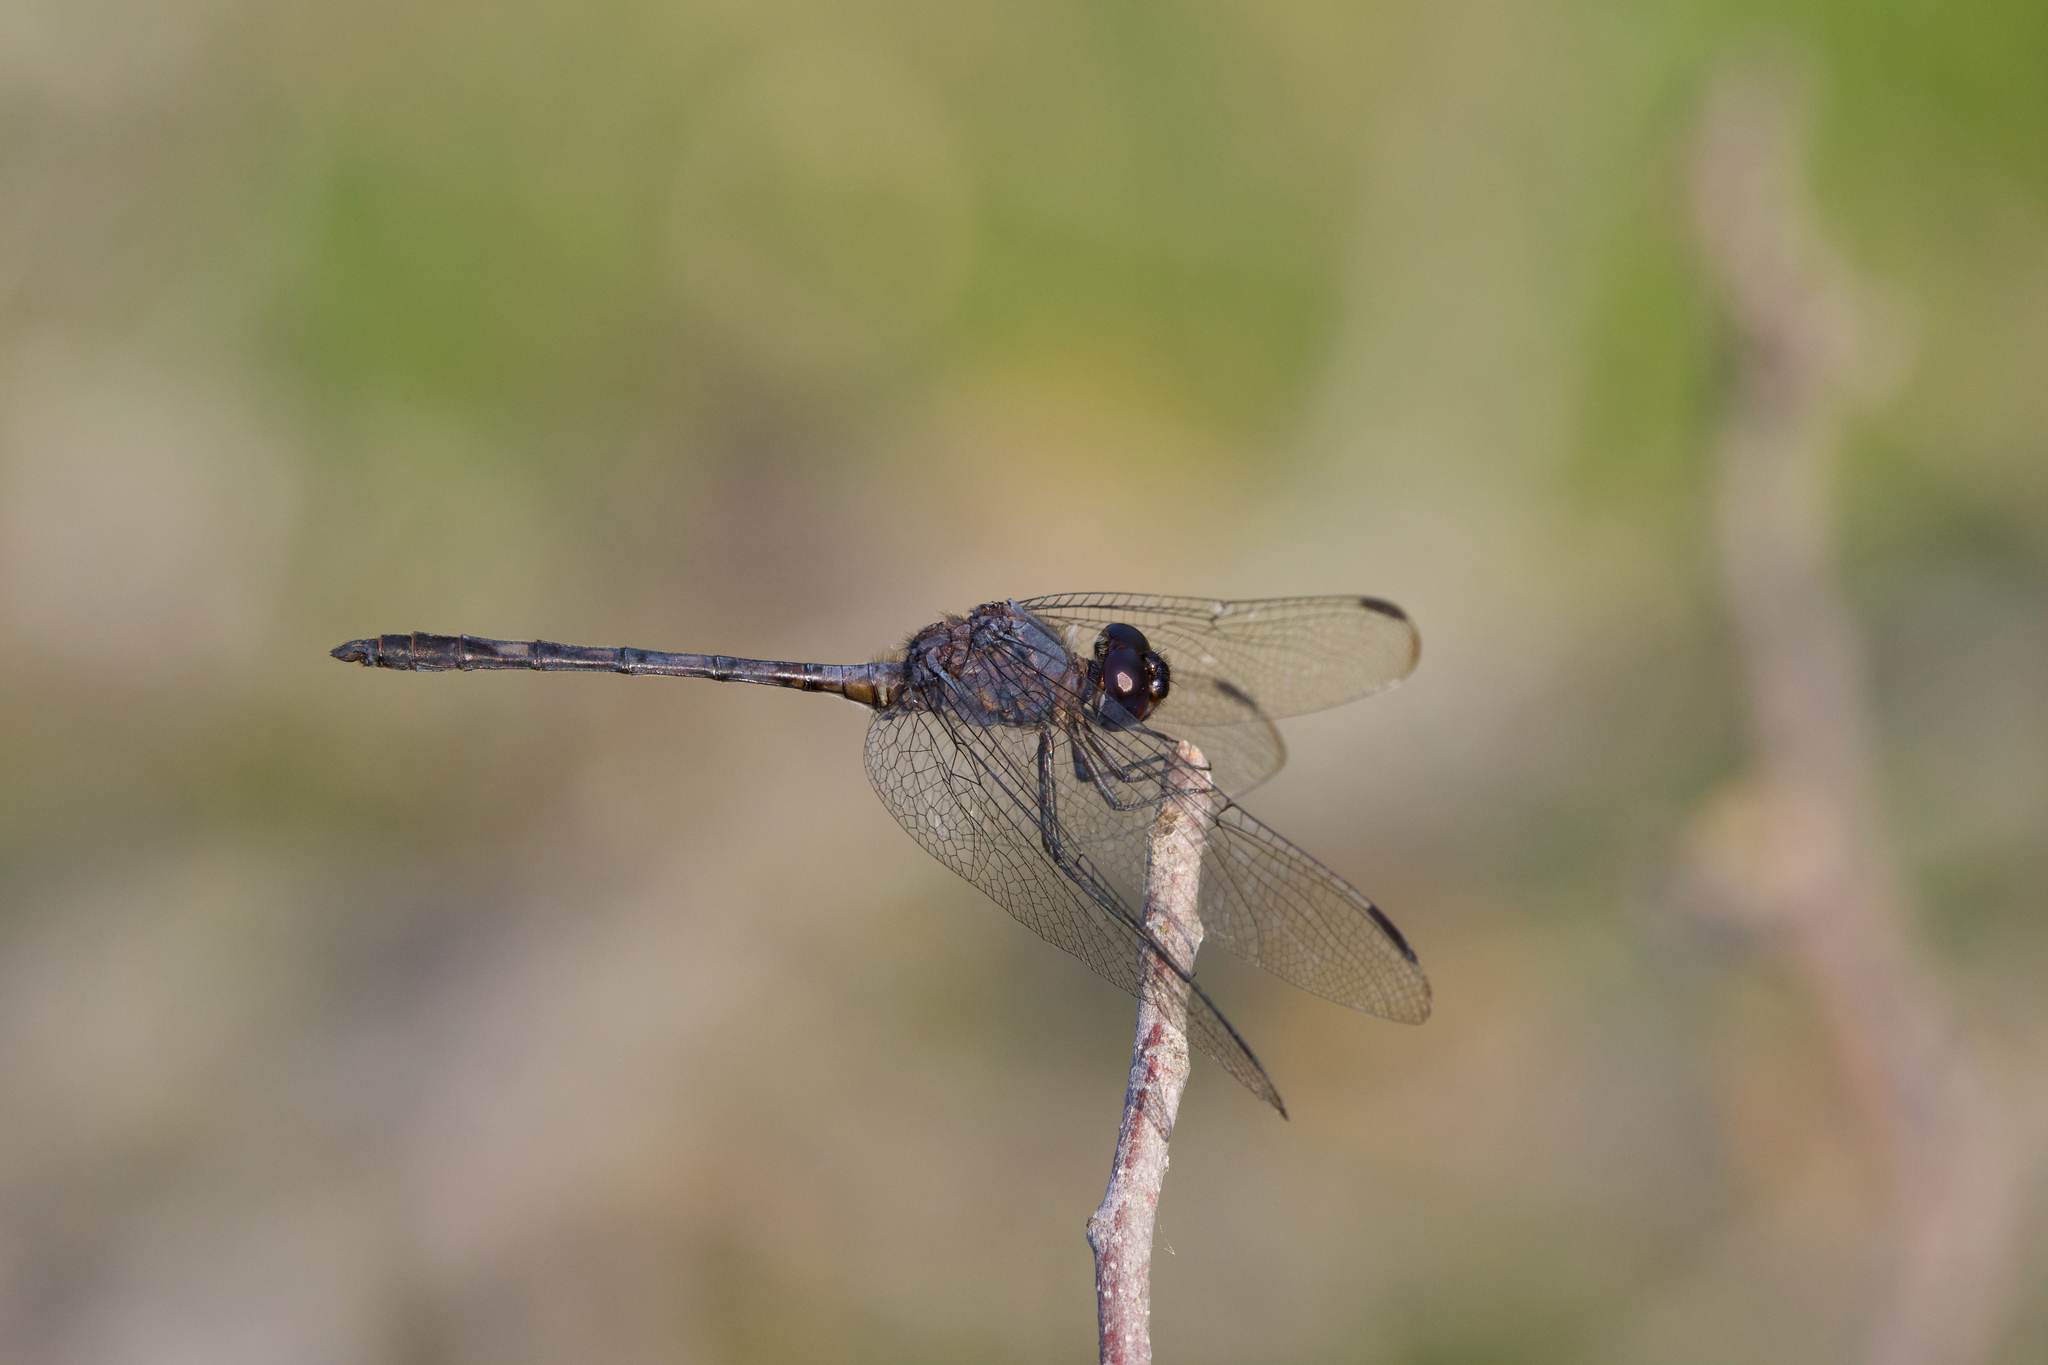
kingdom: Animalia
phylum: Arthropoda
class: Insecta
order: Odonata
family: Libellulidae
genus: Dythemis
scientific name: Dythemis nigrescens
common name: Black setwing
